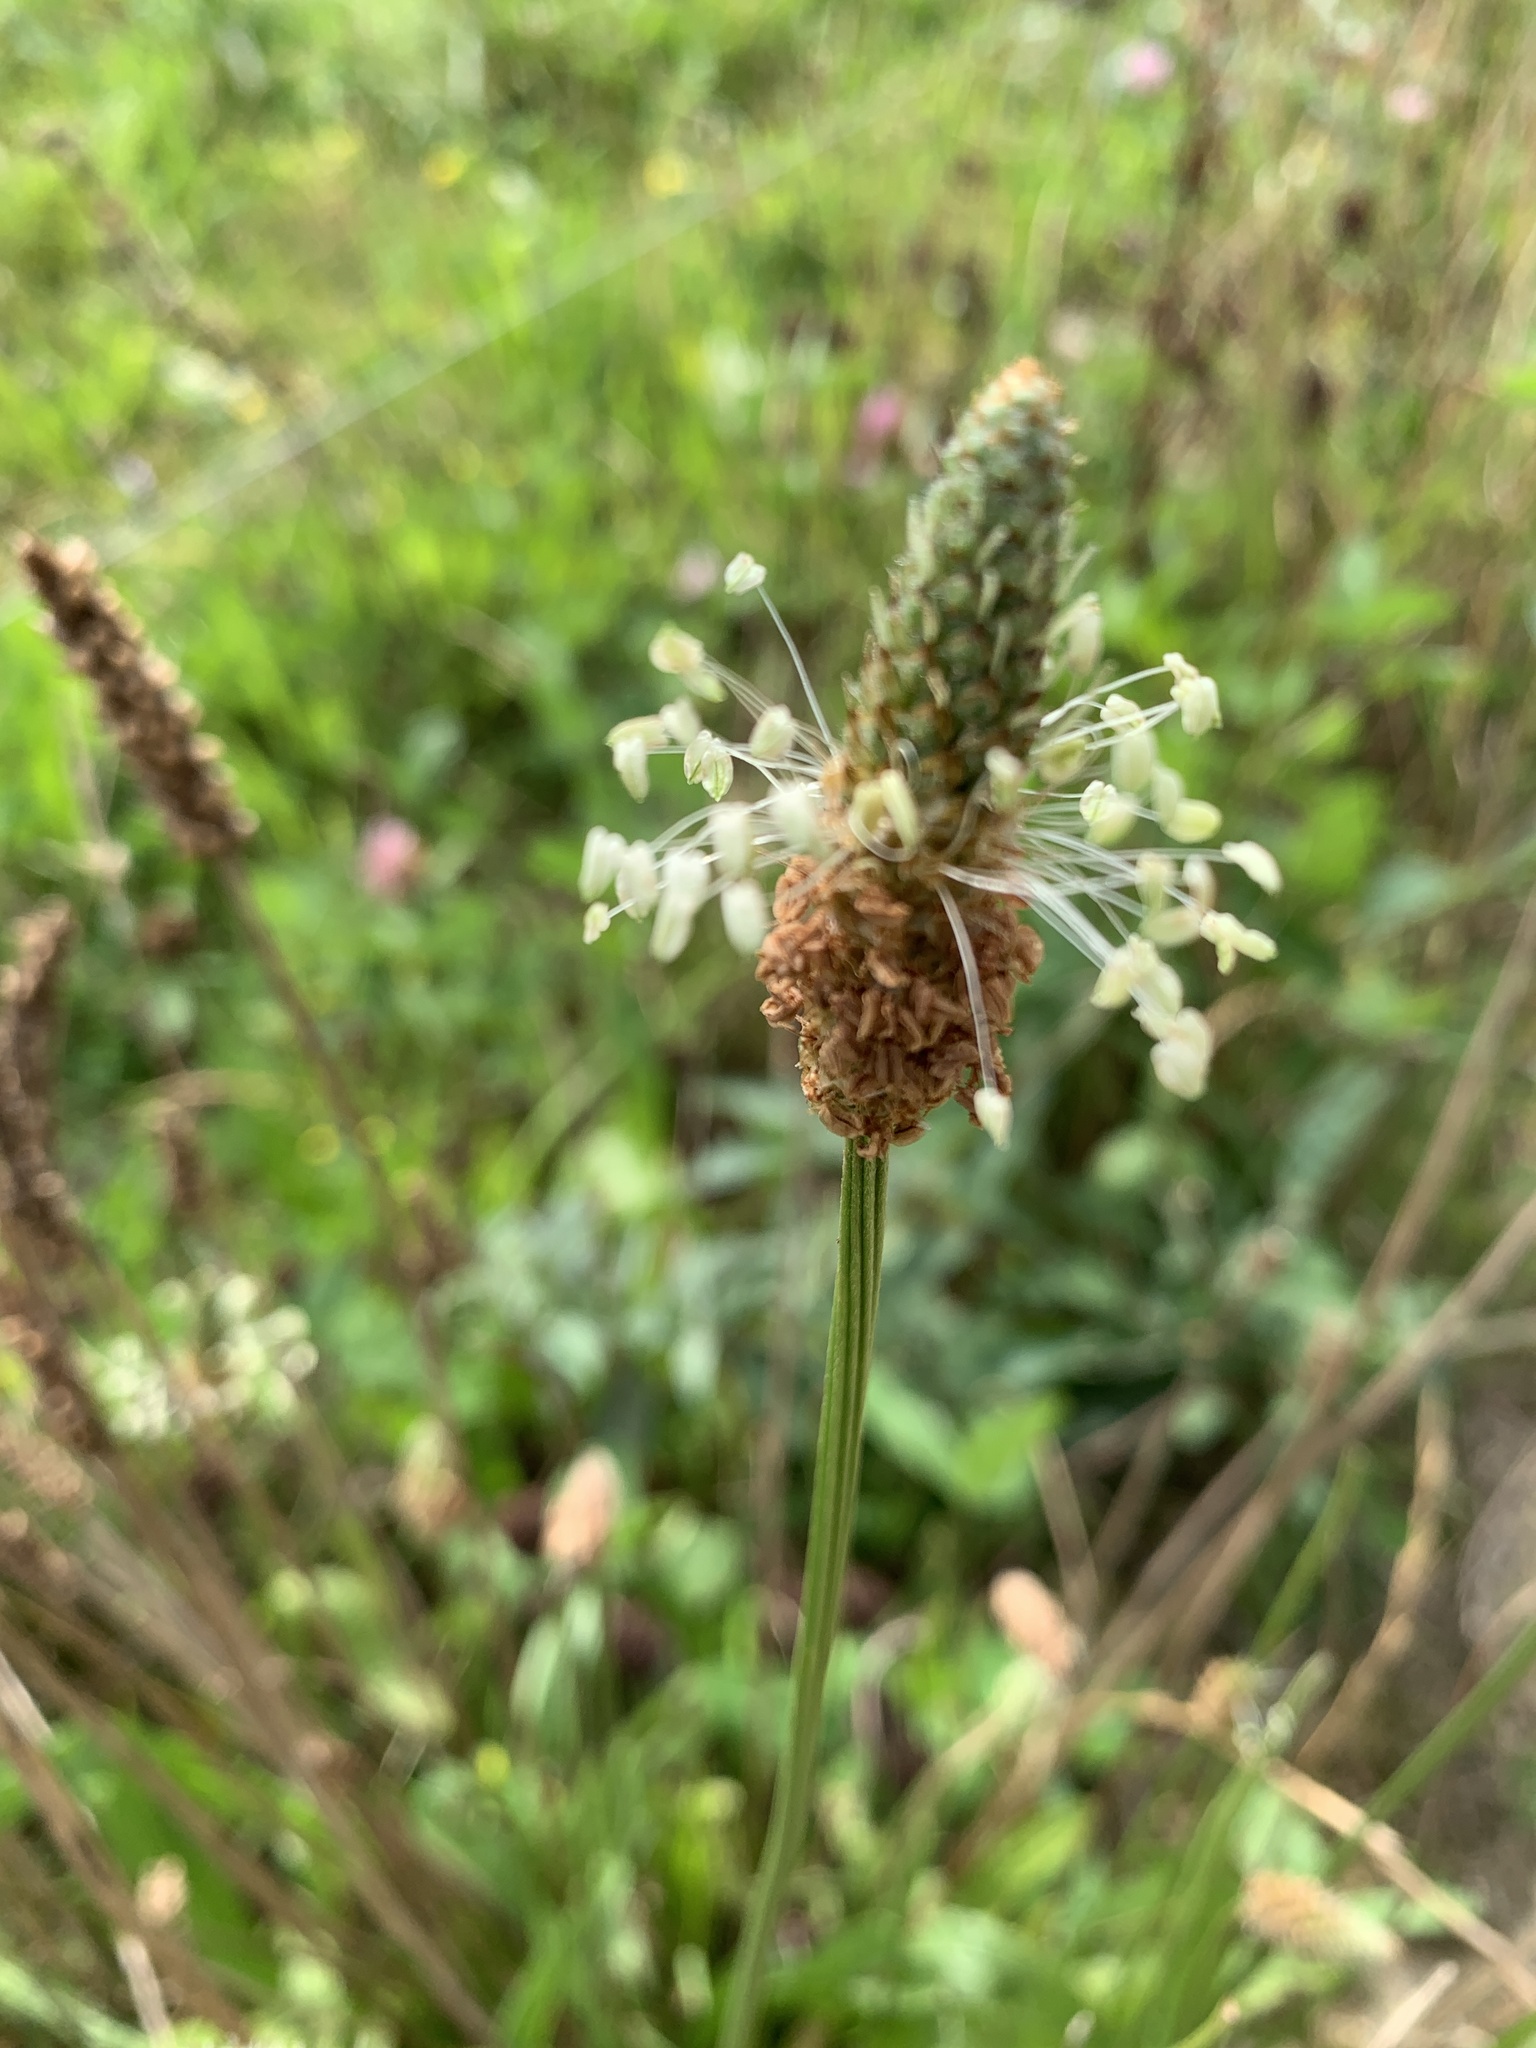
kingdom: Plantae
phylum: Tracheophyta
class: Magnoliopsida
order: Lamiales
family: Plantaginaceae
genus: Plantago
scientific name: Plantago lanceolata
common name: Ribwort plantain
